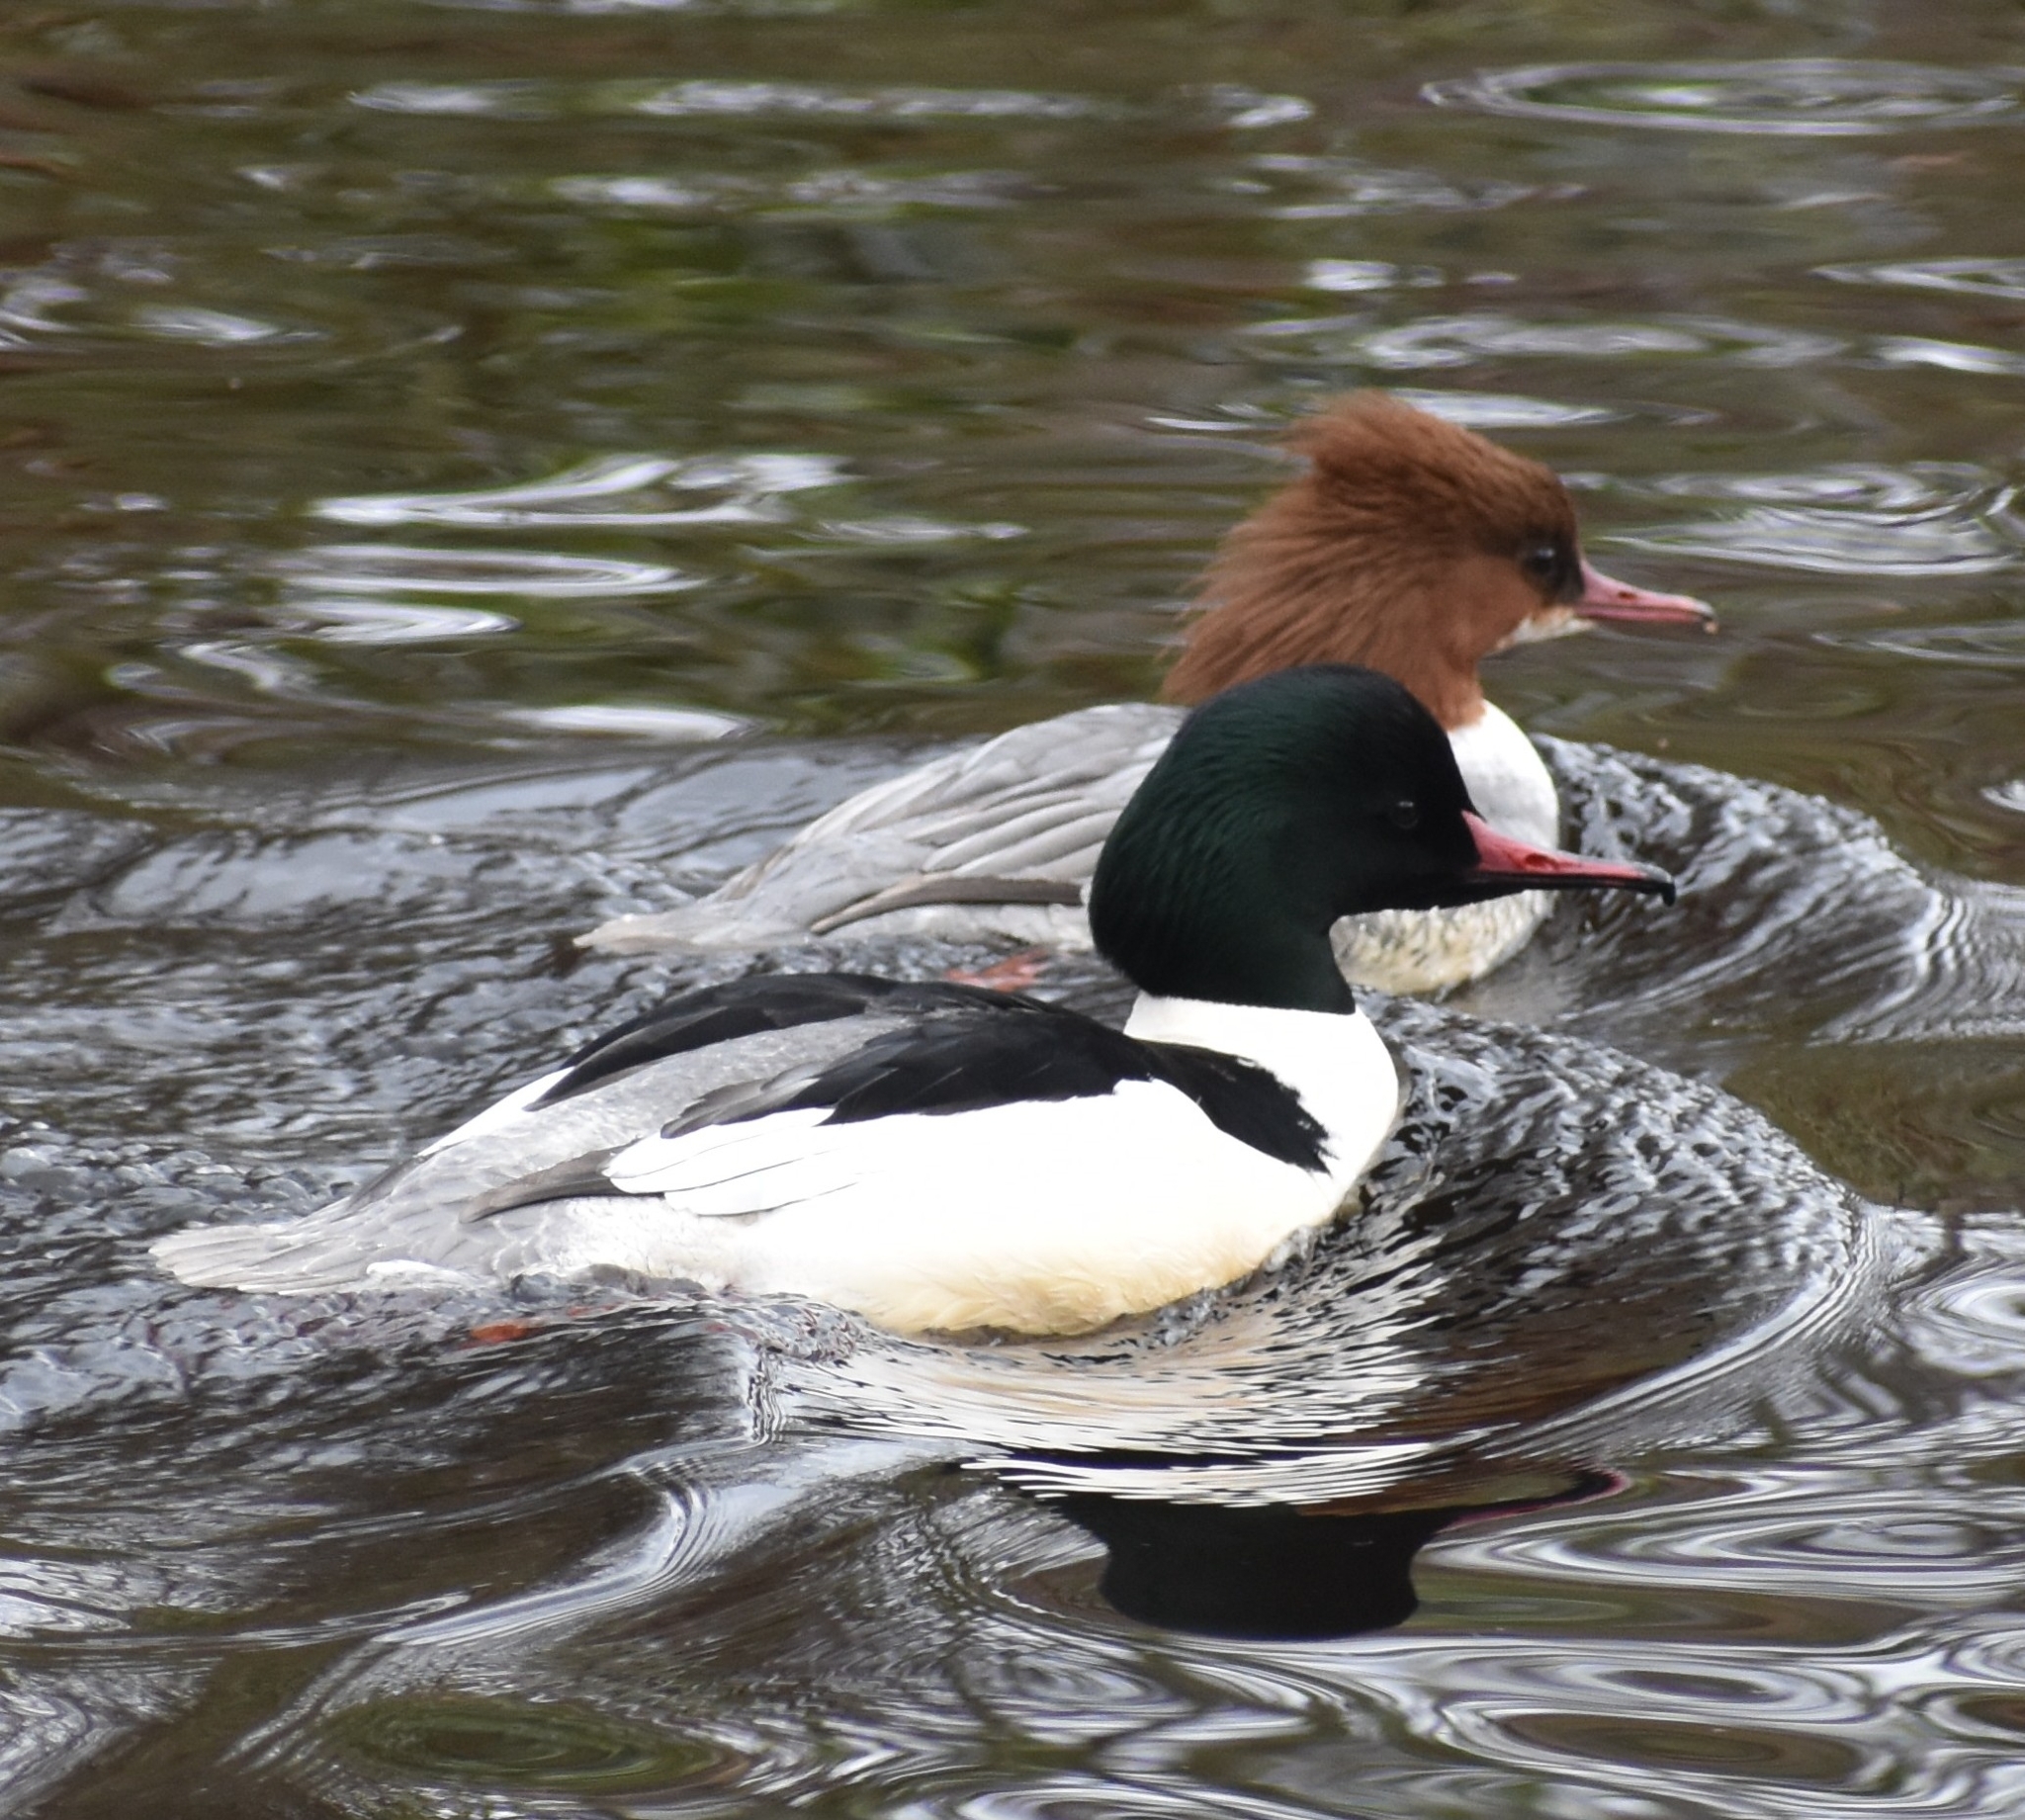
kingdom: Animalia
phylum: Chordata
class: Aves
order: Anseriformes
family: Anatidae
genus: Mergus
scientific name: Mergus merganser
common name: Common merganser
